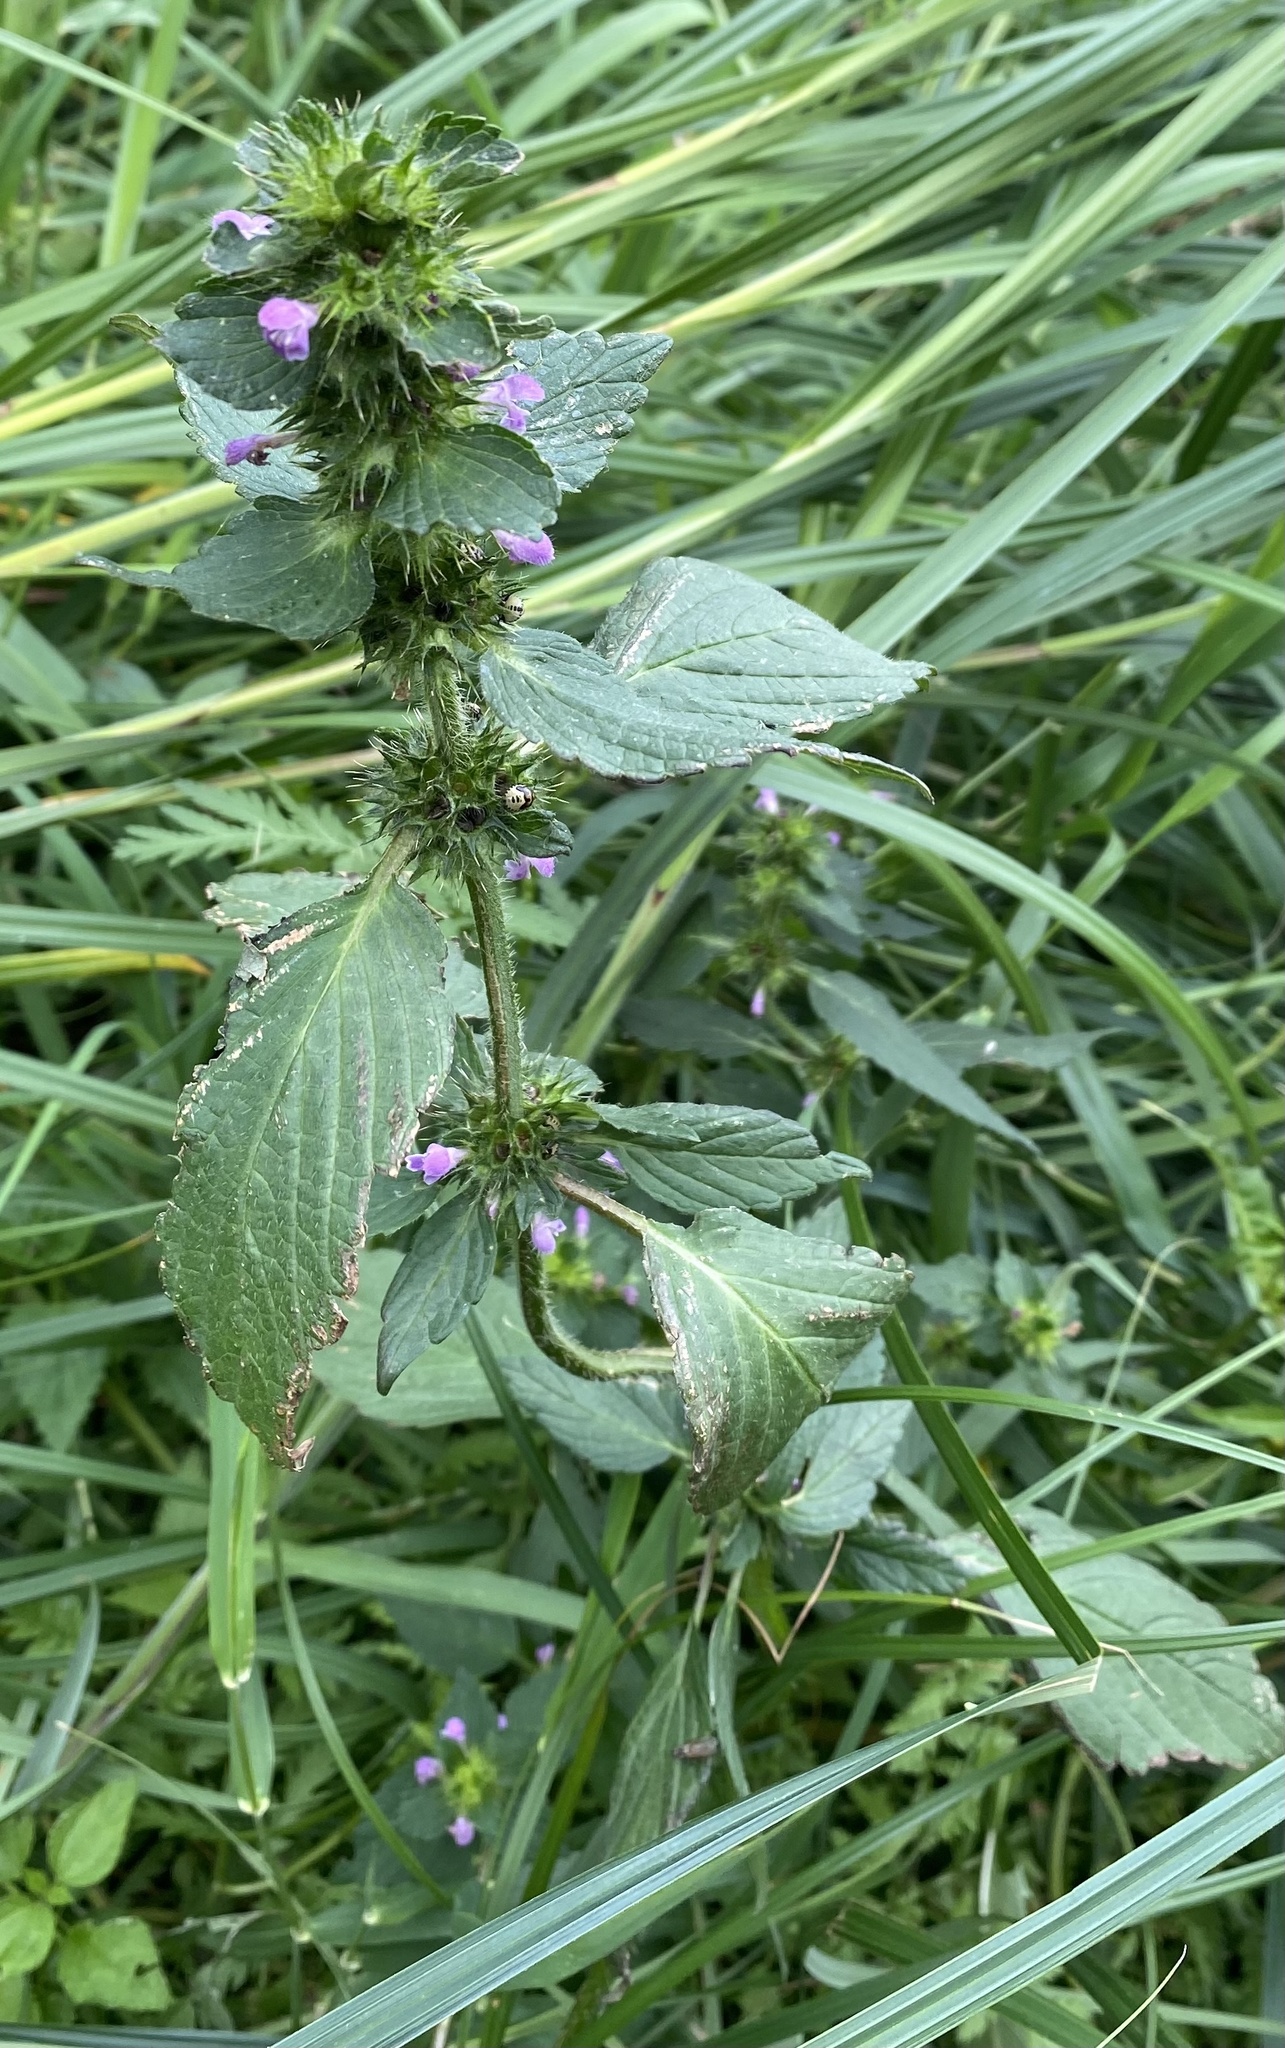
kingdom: Plantae
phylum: Tracheophyta
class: Magnoliopsida
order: Lamiales
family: Lamiaceae
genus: Galeopsis
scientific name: Galeopsis bifida
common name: Bifid hemp-nettle
